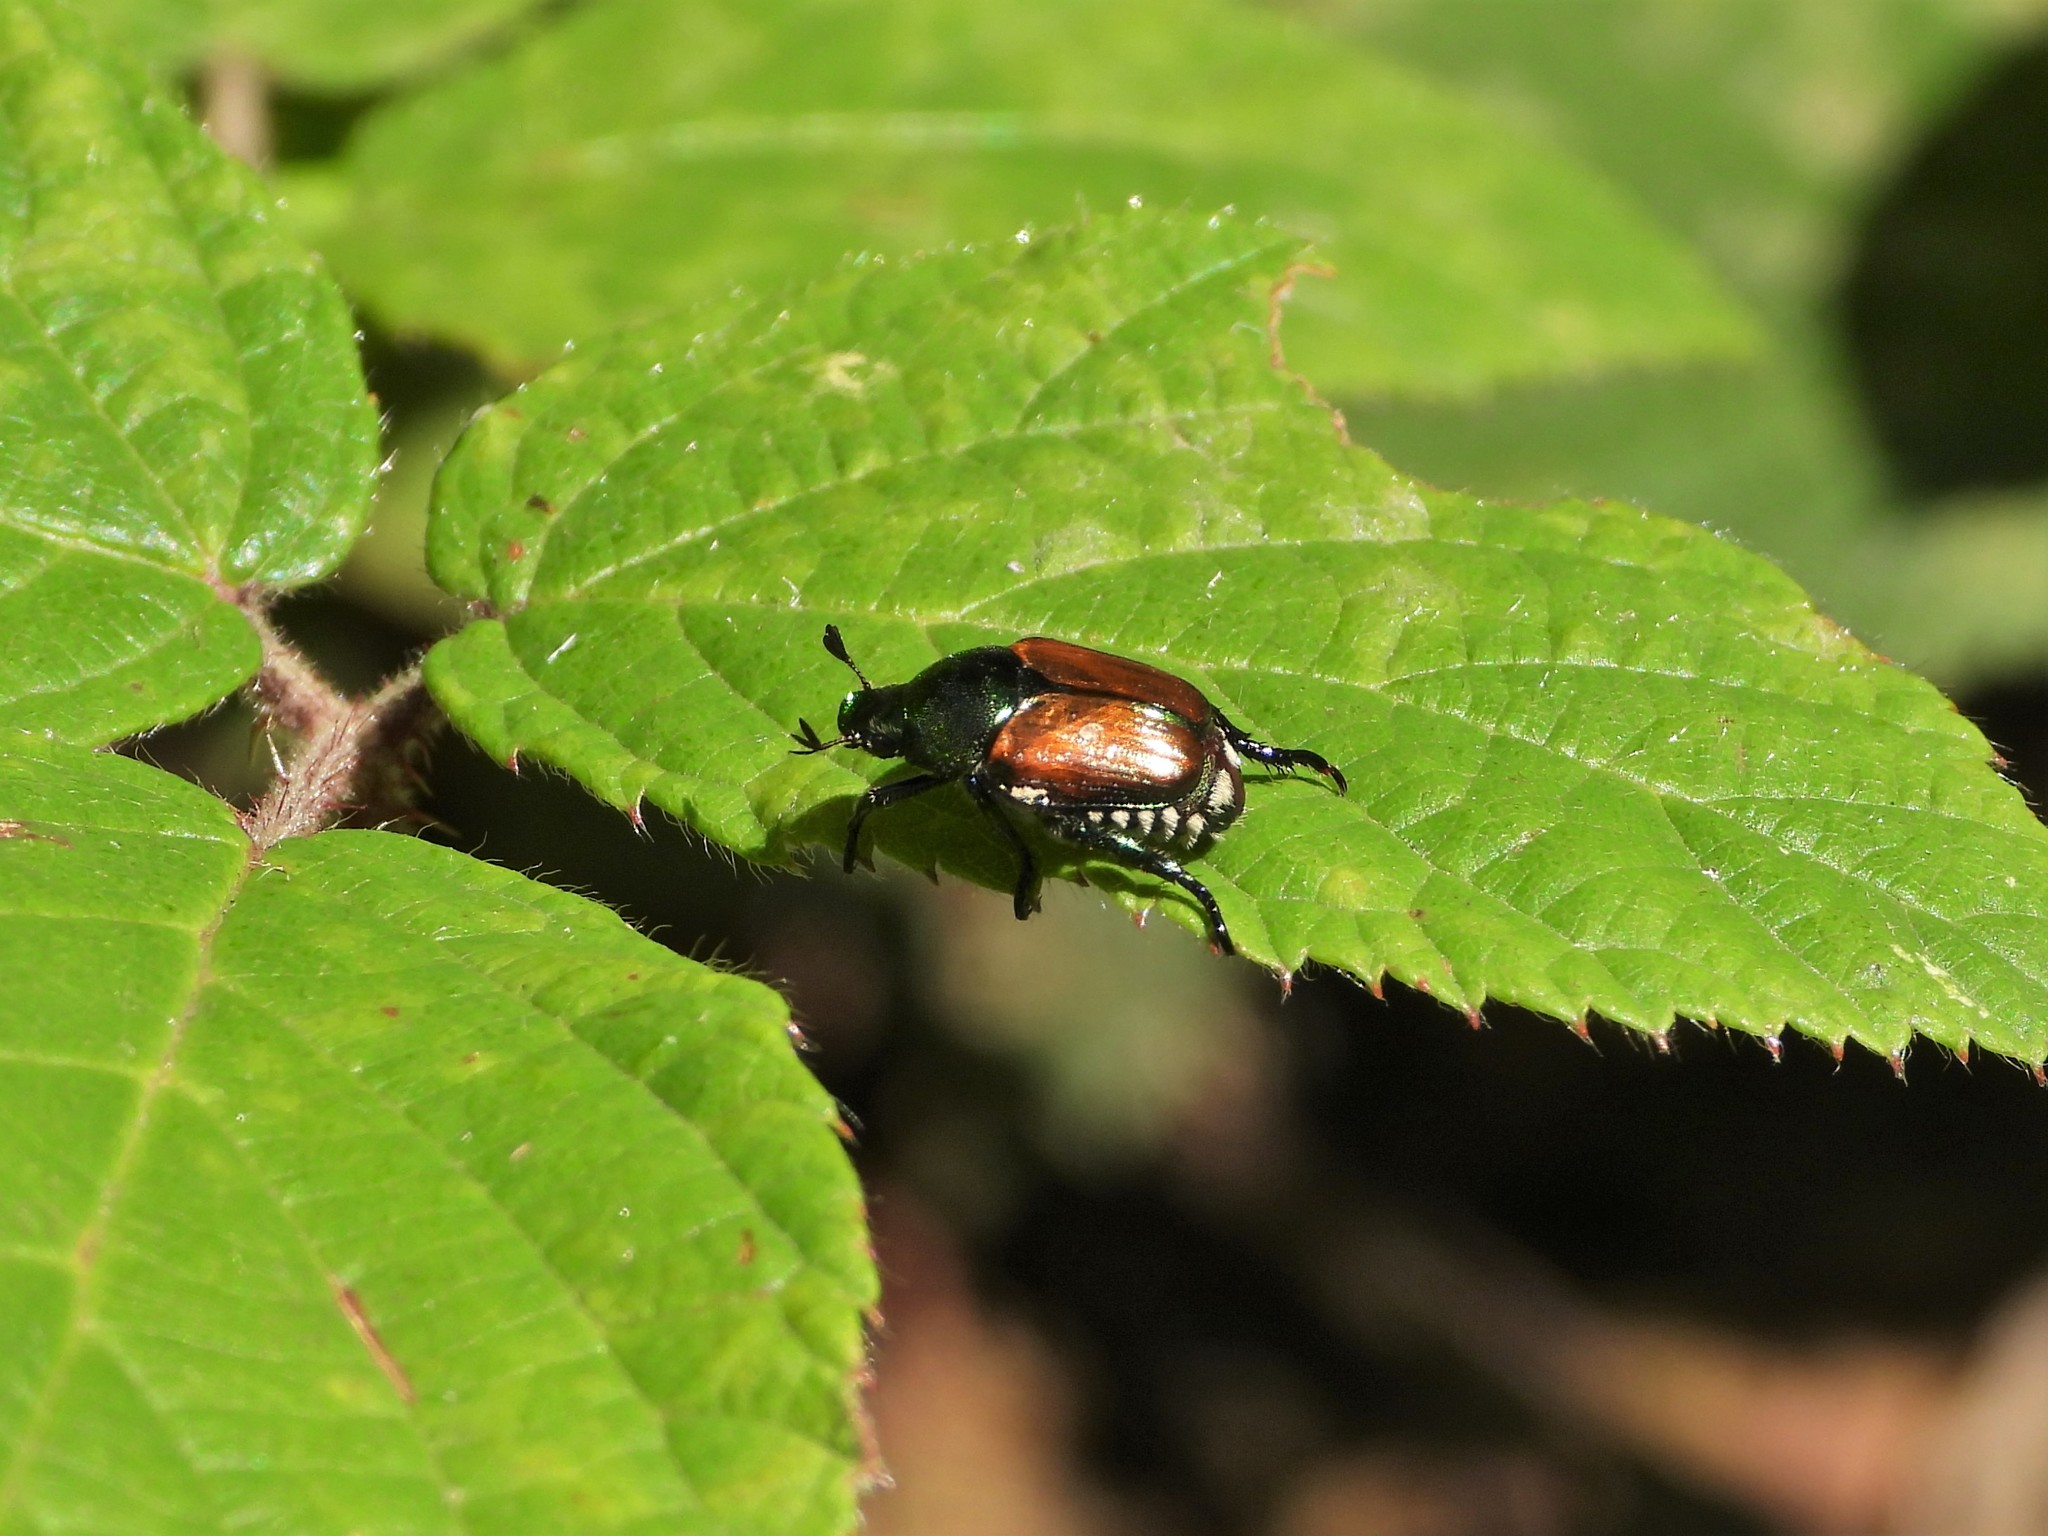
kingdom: Animalia
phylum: Arthropoda
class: Insecta
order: Coleoptera
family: Scarabaeidae
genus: Popillia
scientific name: Popillia japonica
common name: Japanese beetle
